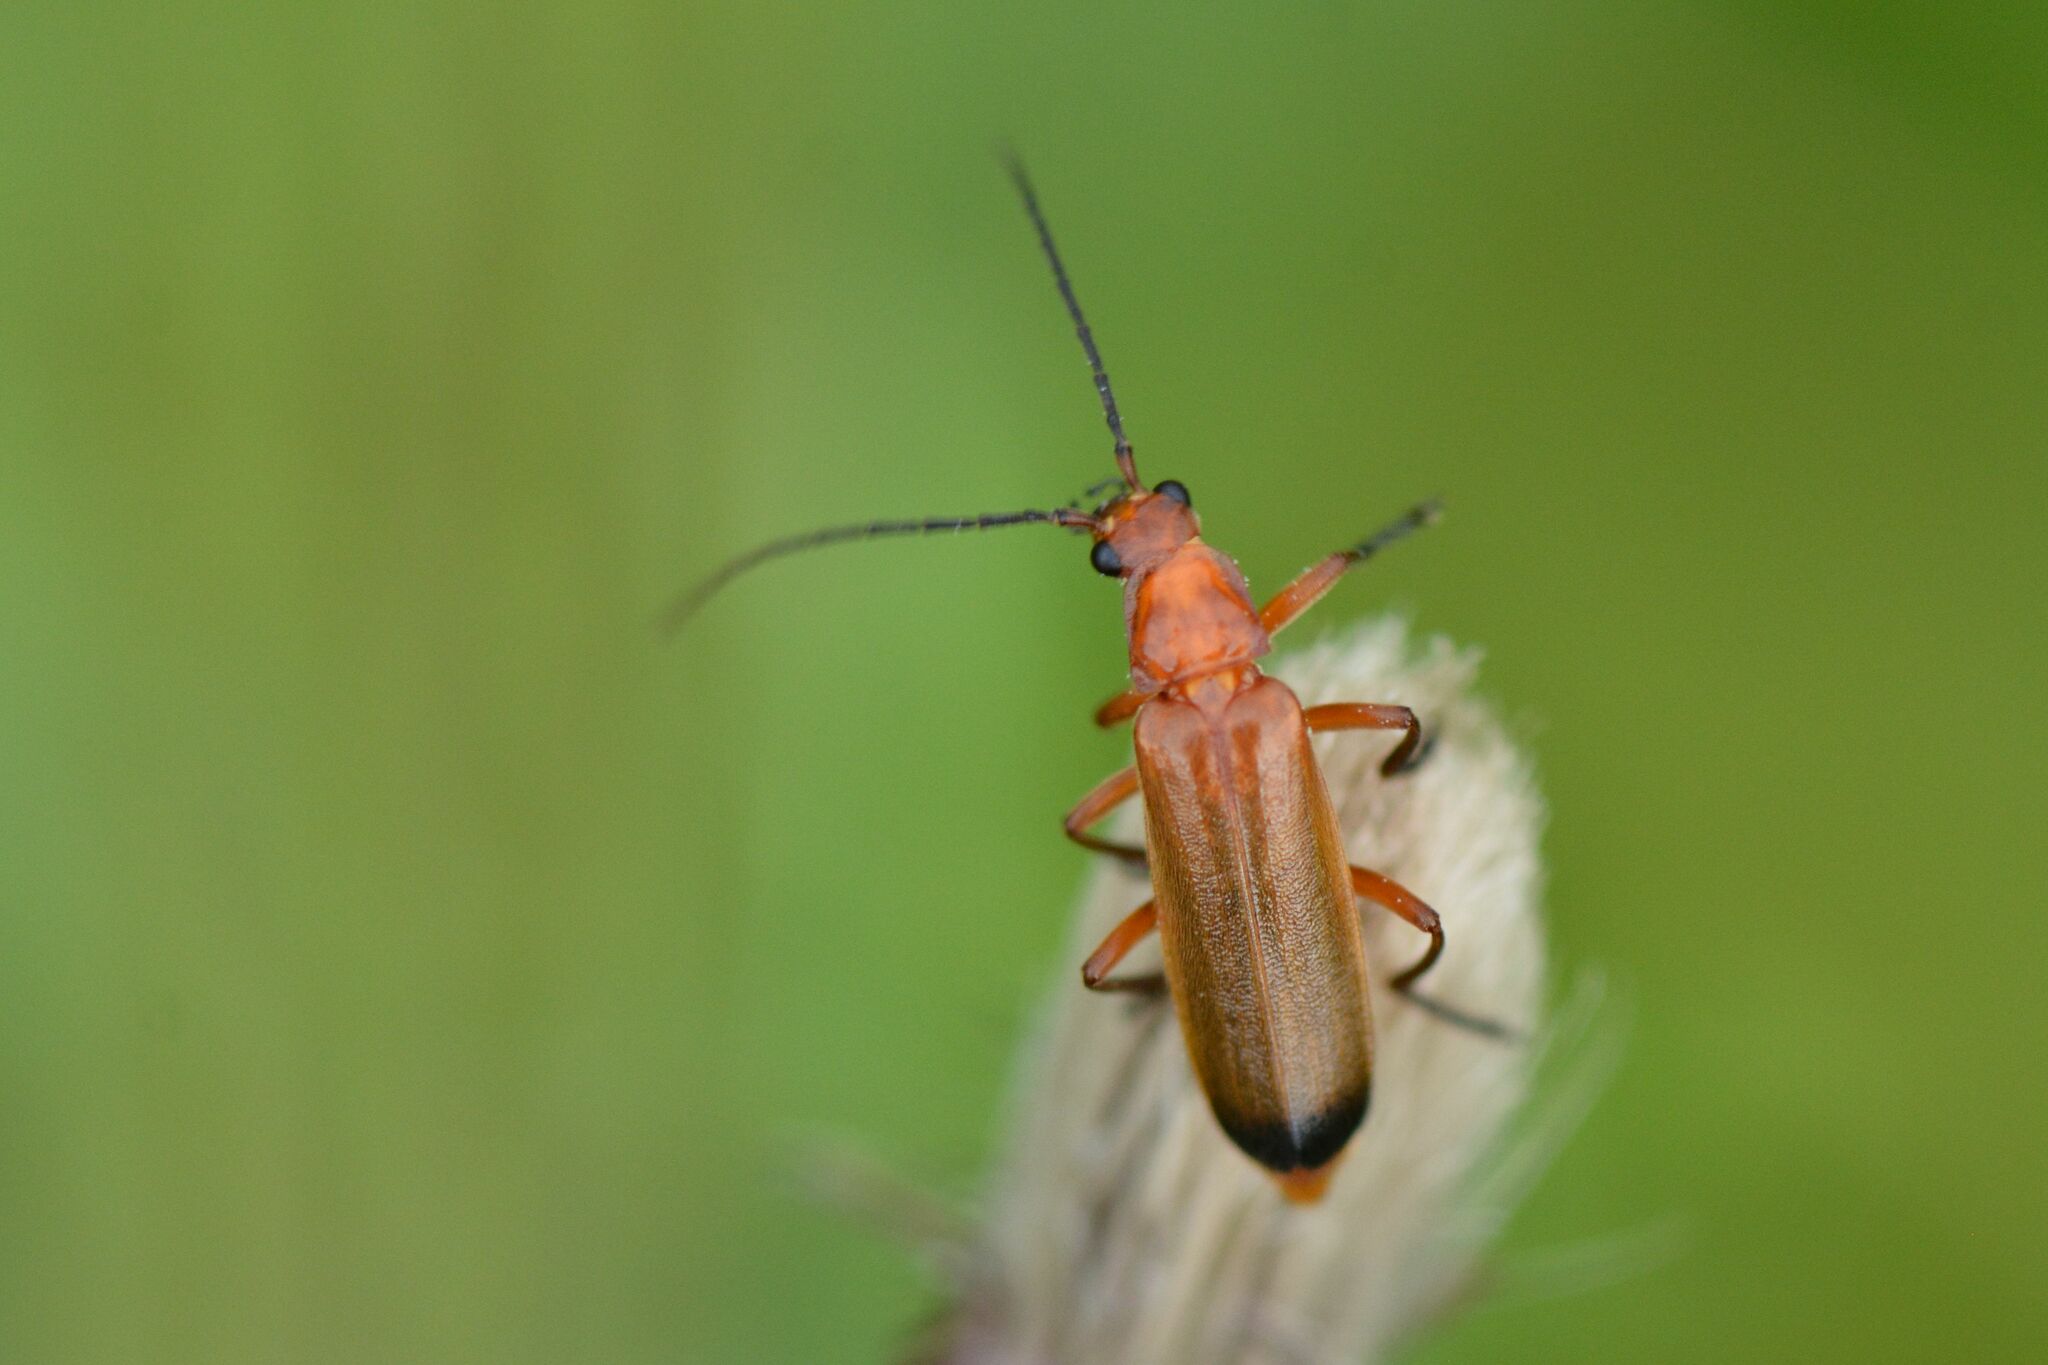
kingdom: Animalia
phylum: Arthropoda
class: Insecta
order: Coleoptera
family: Cantharidae
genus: Rhagonycha
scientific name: Rhagonycha fulva
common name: Common red soldier beetle
